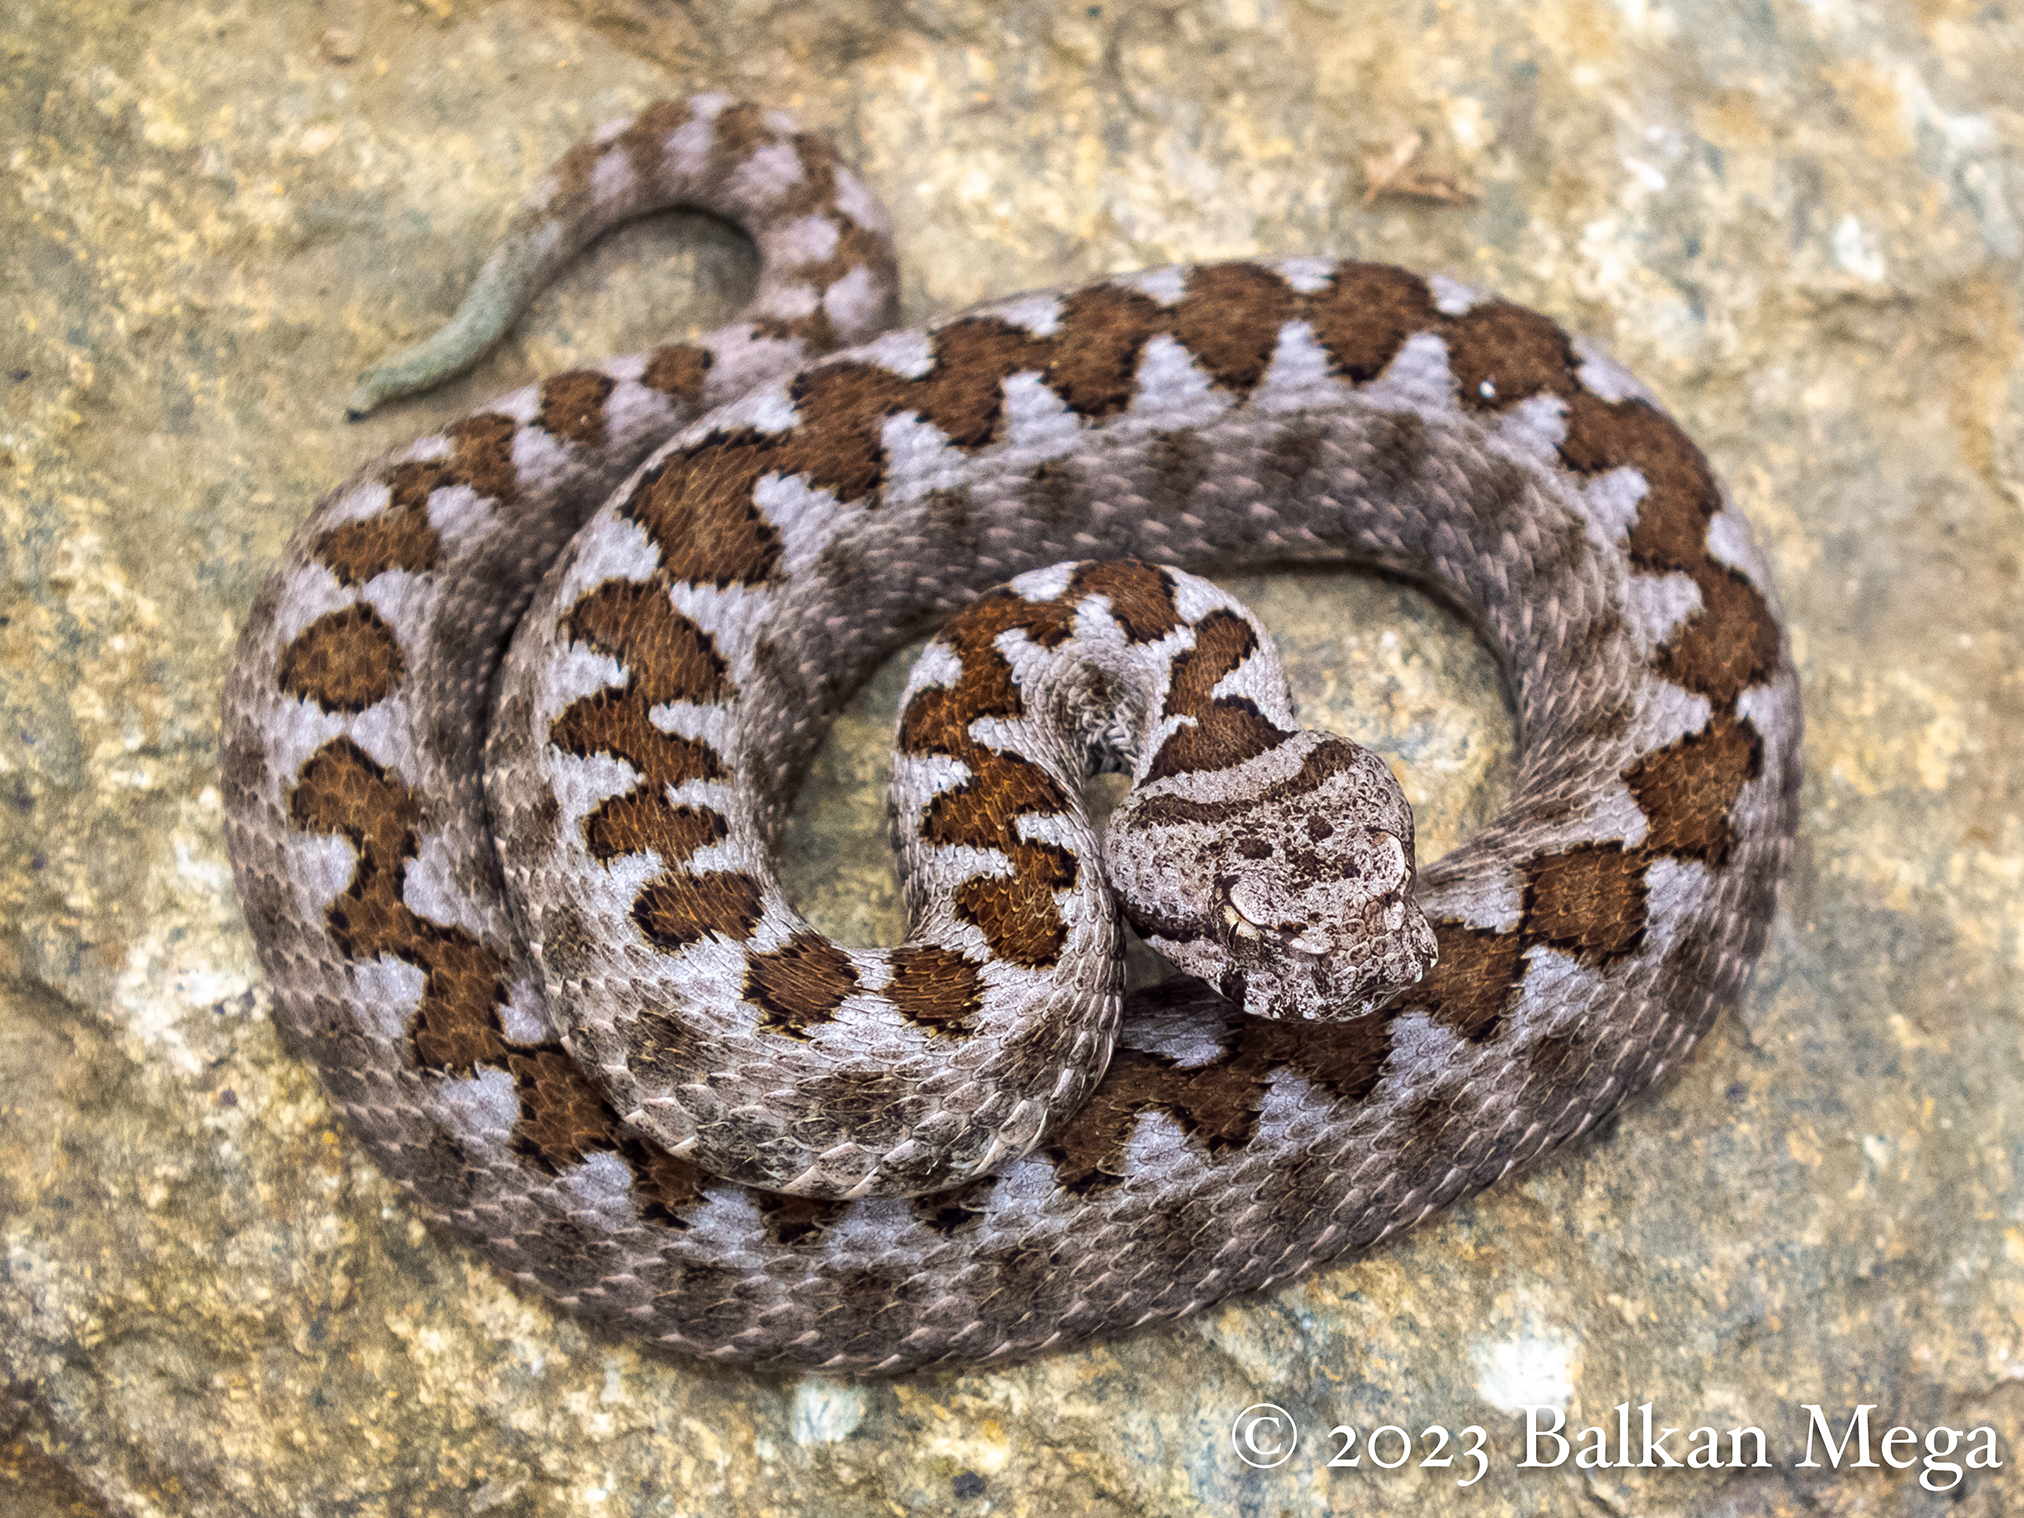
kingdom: Animalia
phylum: Chordata
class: Squamata
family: Viperidae
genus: Vipera
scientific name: Vipera ammodytes
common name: Sand viper
